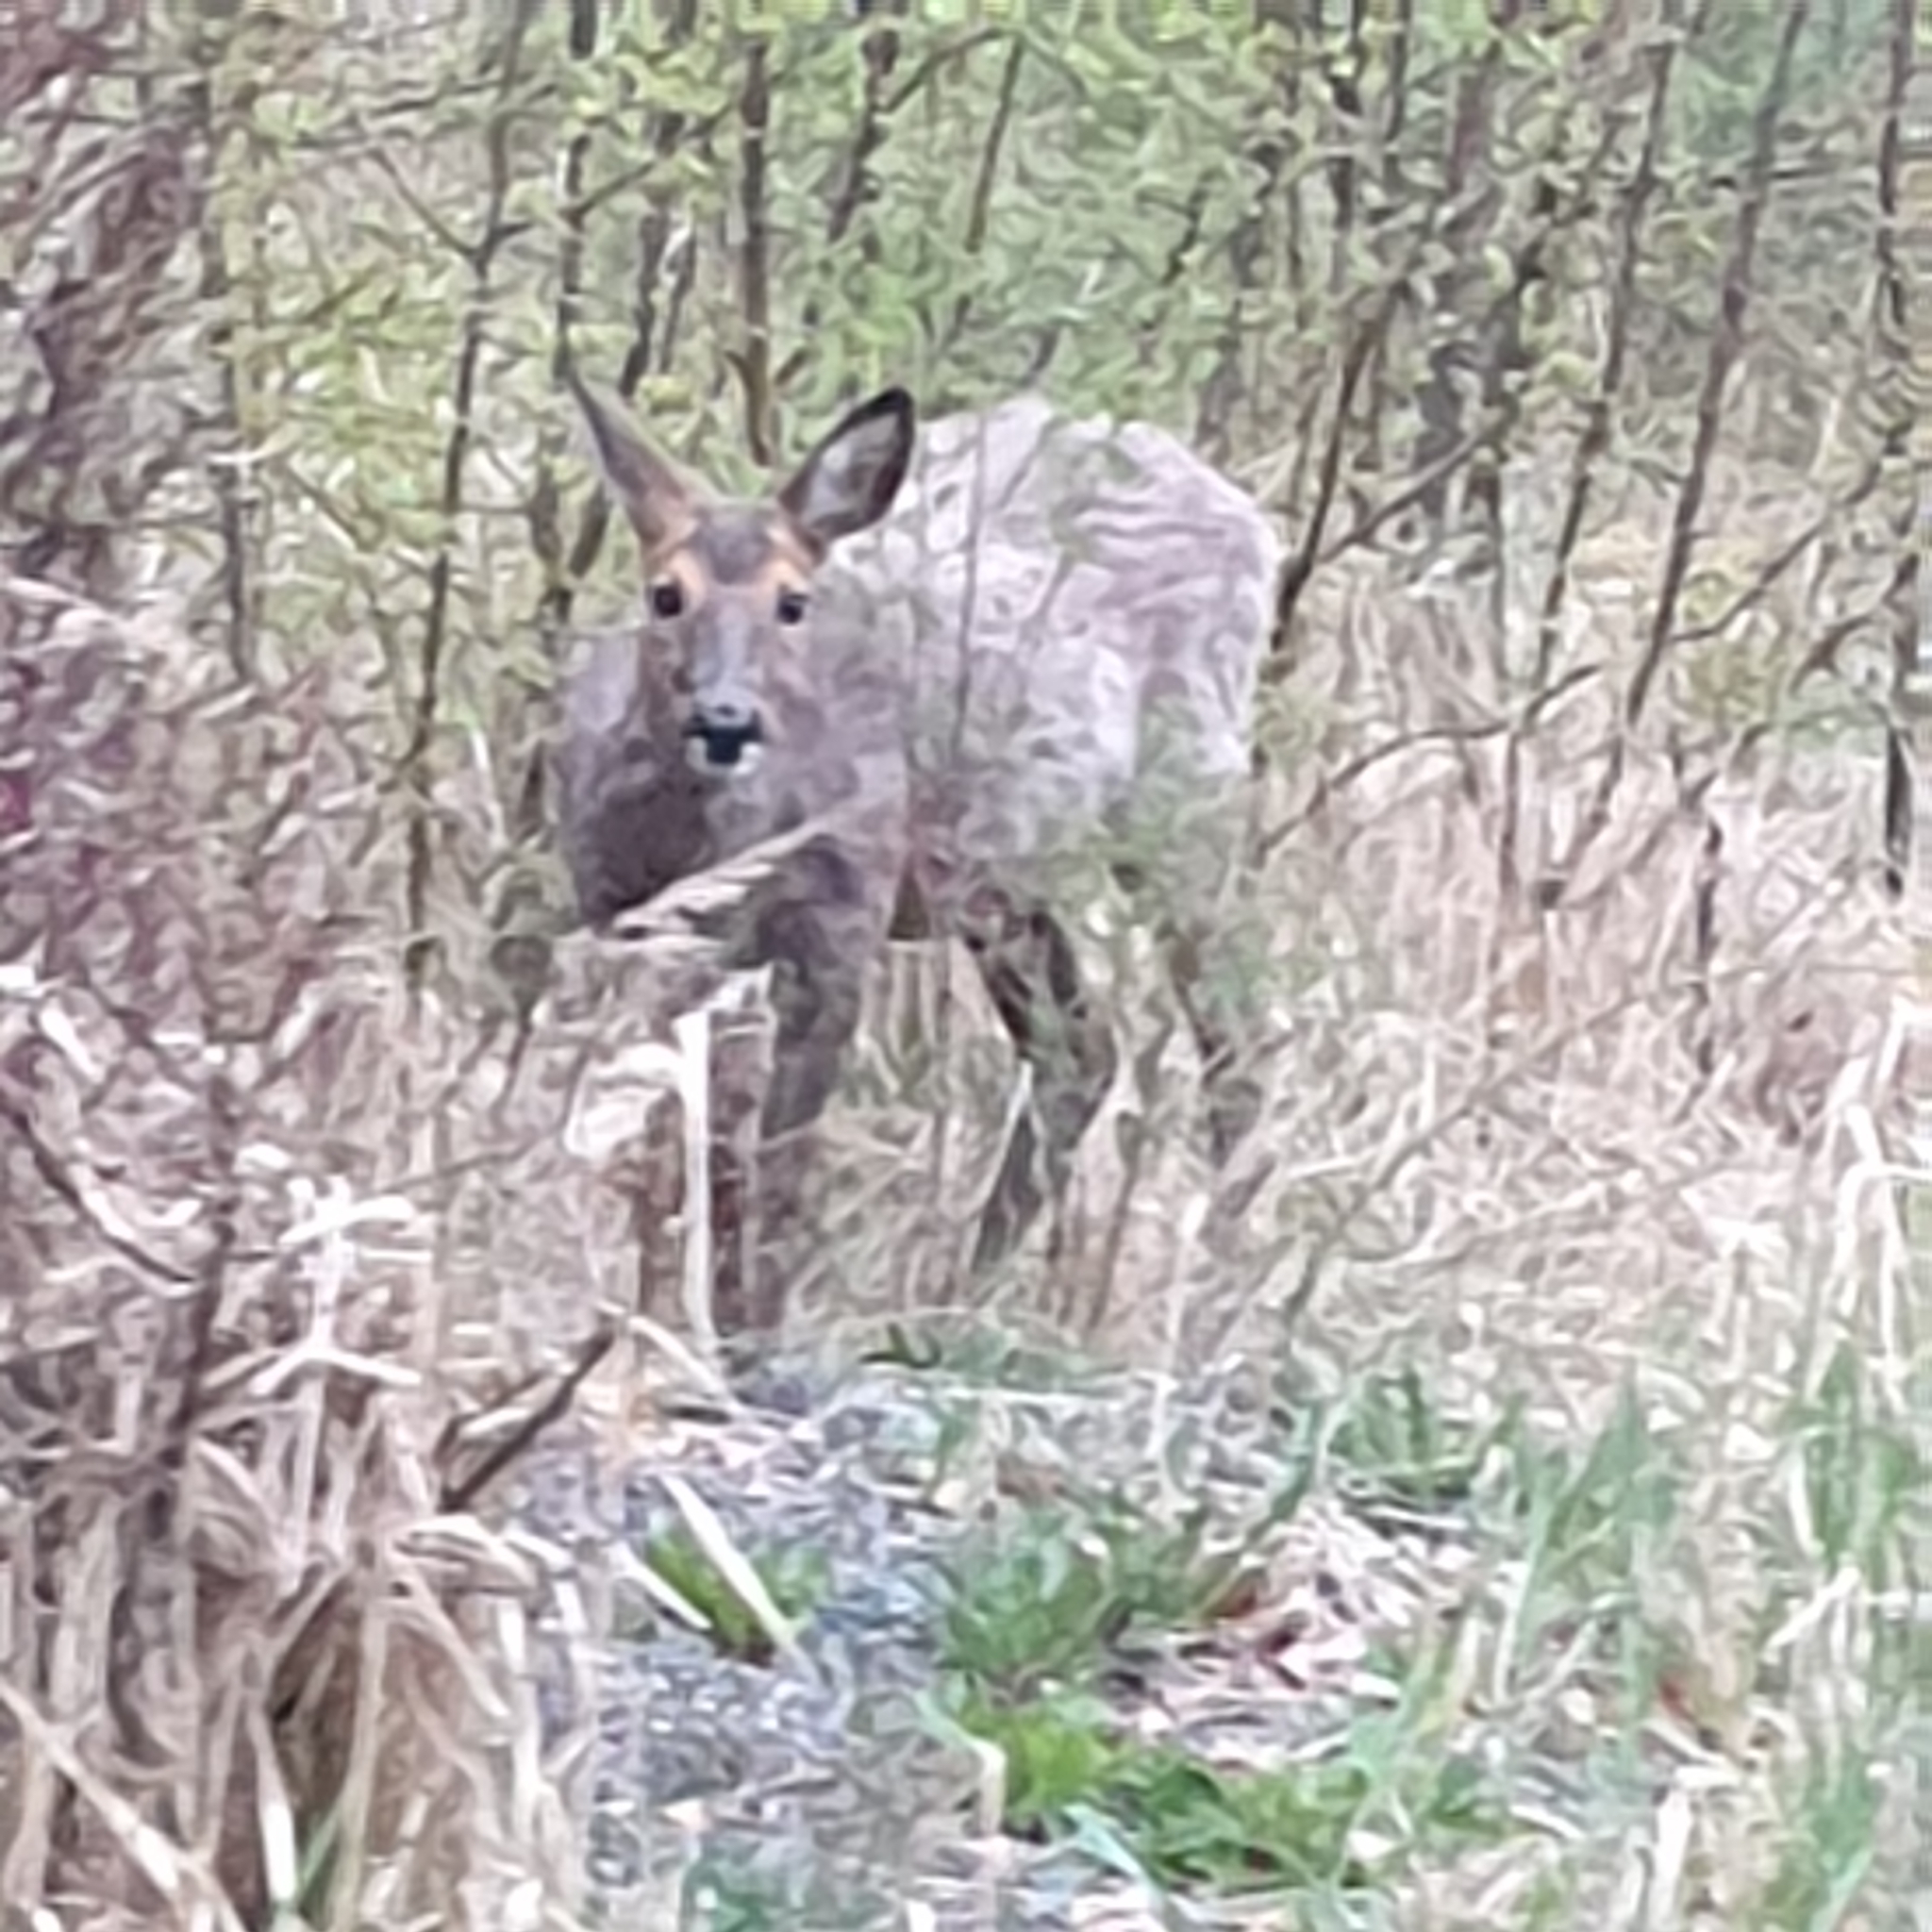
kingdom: Animalia
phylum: Chordata
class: Mammalia
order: Artiodactyla
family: Cervidae
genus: Capreolus
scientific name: Capreolus capreolus
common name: Western roe deer
